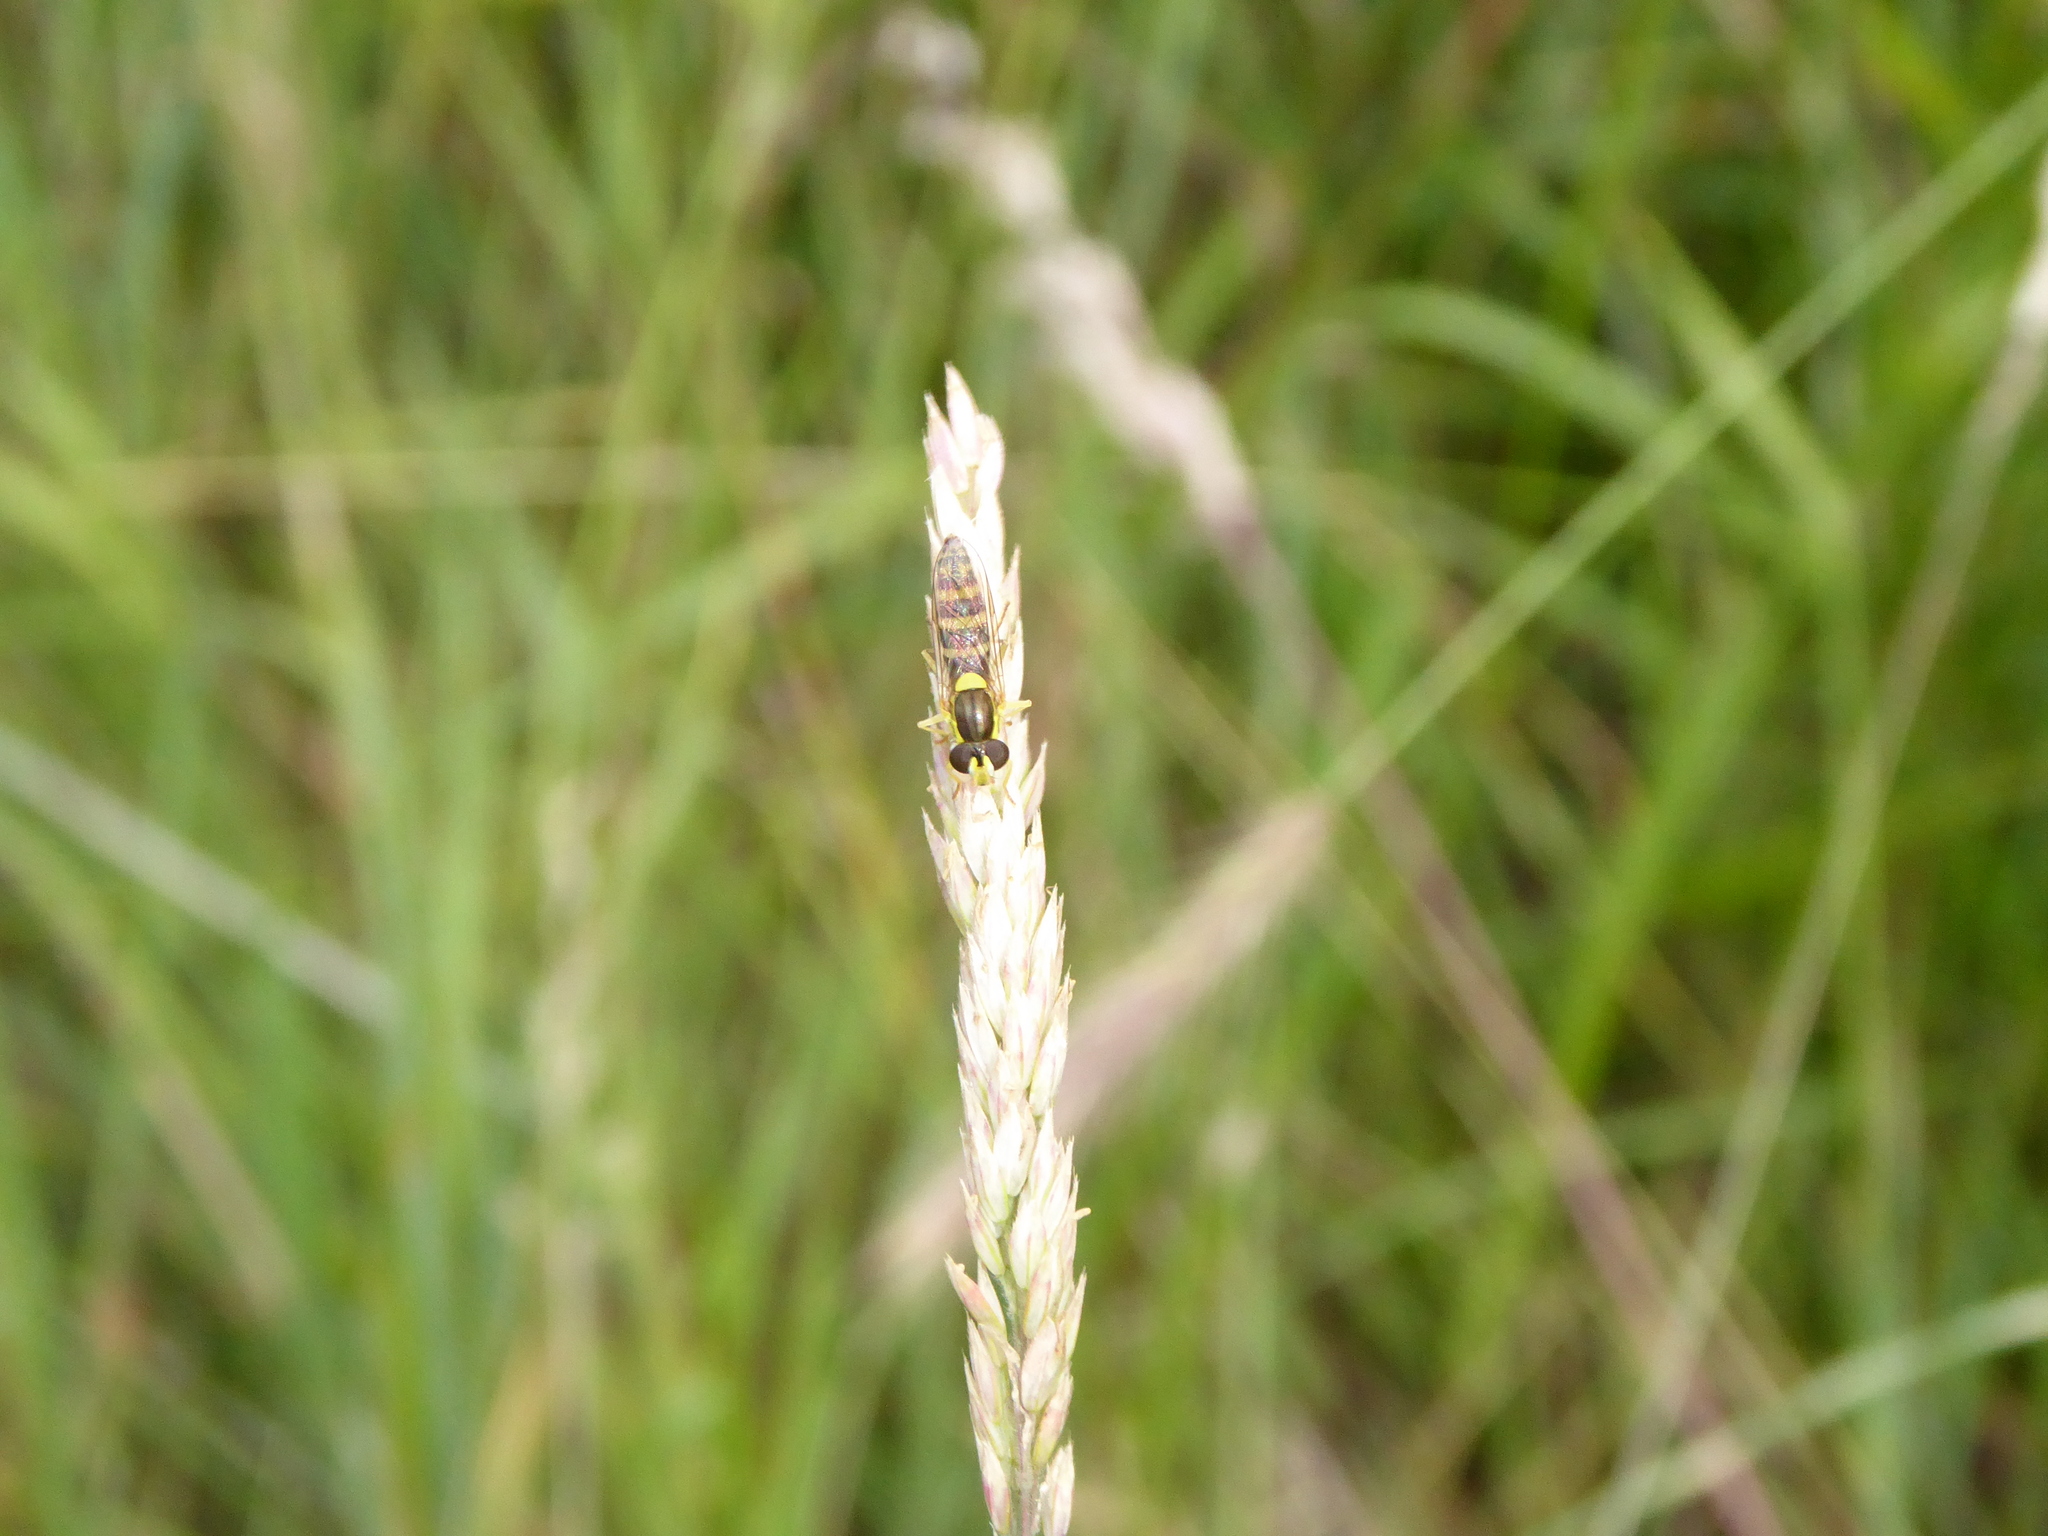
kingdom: Animalia
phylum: Arthropoda
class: Insecta
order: Diptera
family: Syrphidae
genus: Sphaerophoria
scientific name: Sphaerophoria
